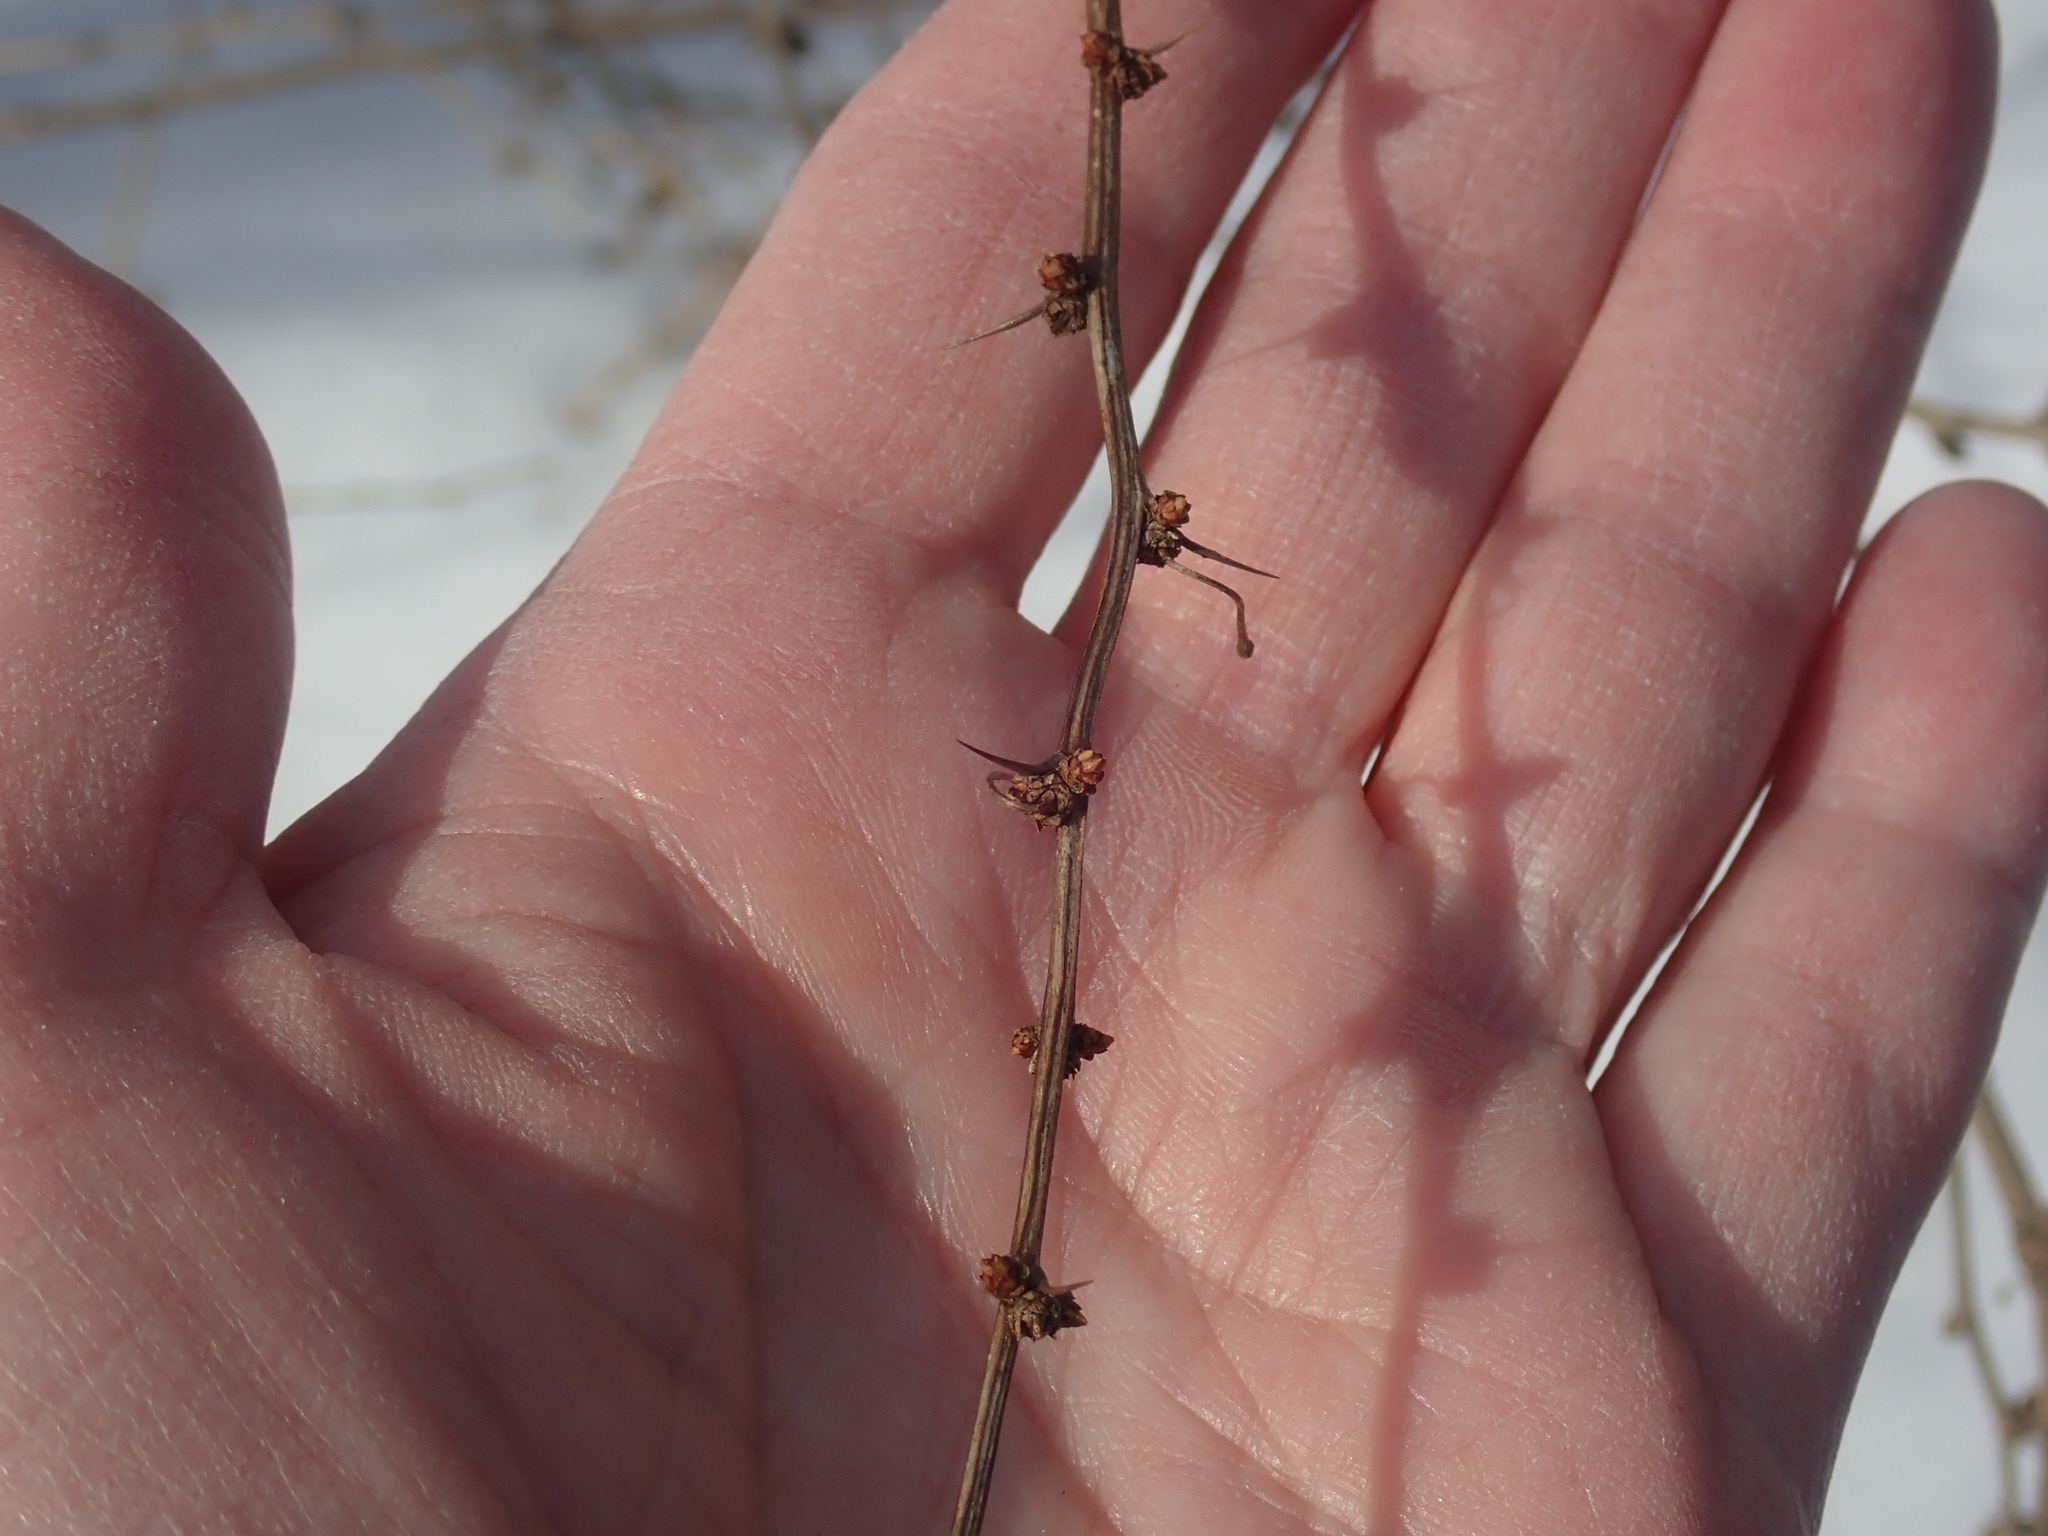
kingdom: Plantae
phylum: Tracheophyta
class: Magnoliopsida
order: Ranunculales
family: Berberidaceae
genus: Berberis
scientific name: Berberis thunbergii
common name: Japanese barberry
